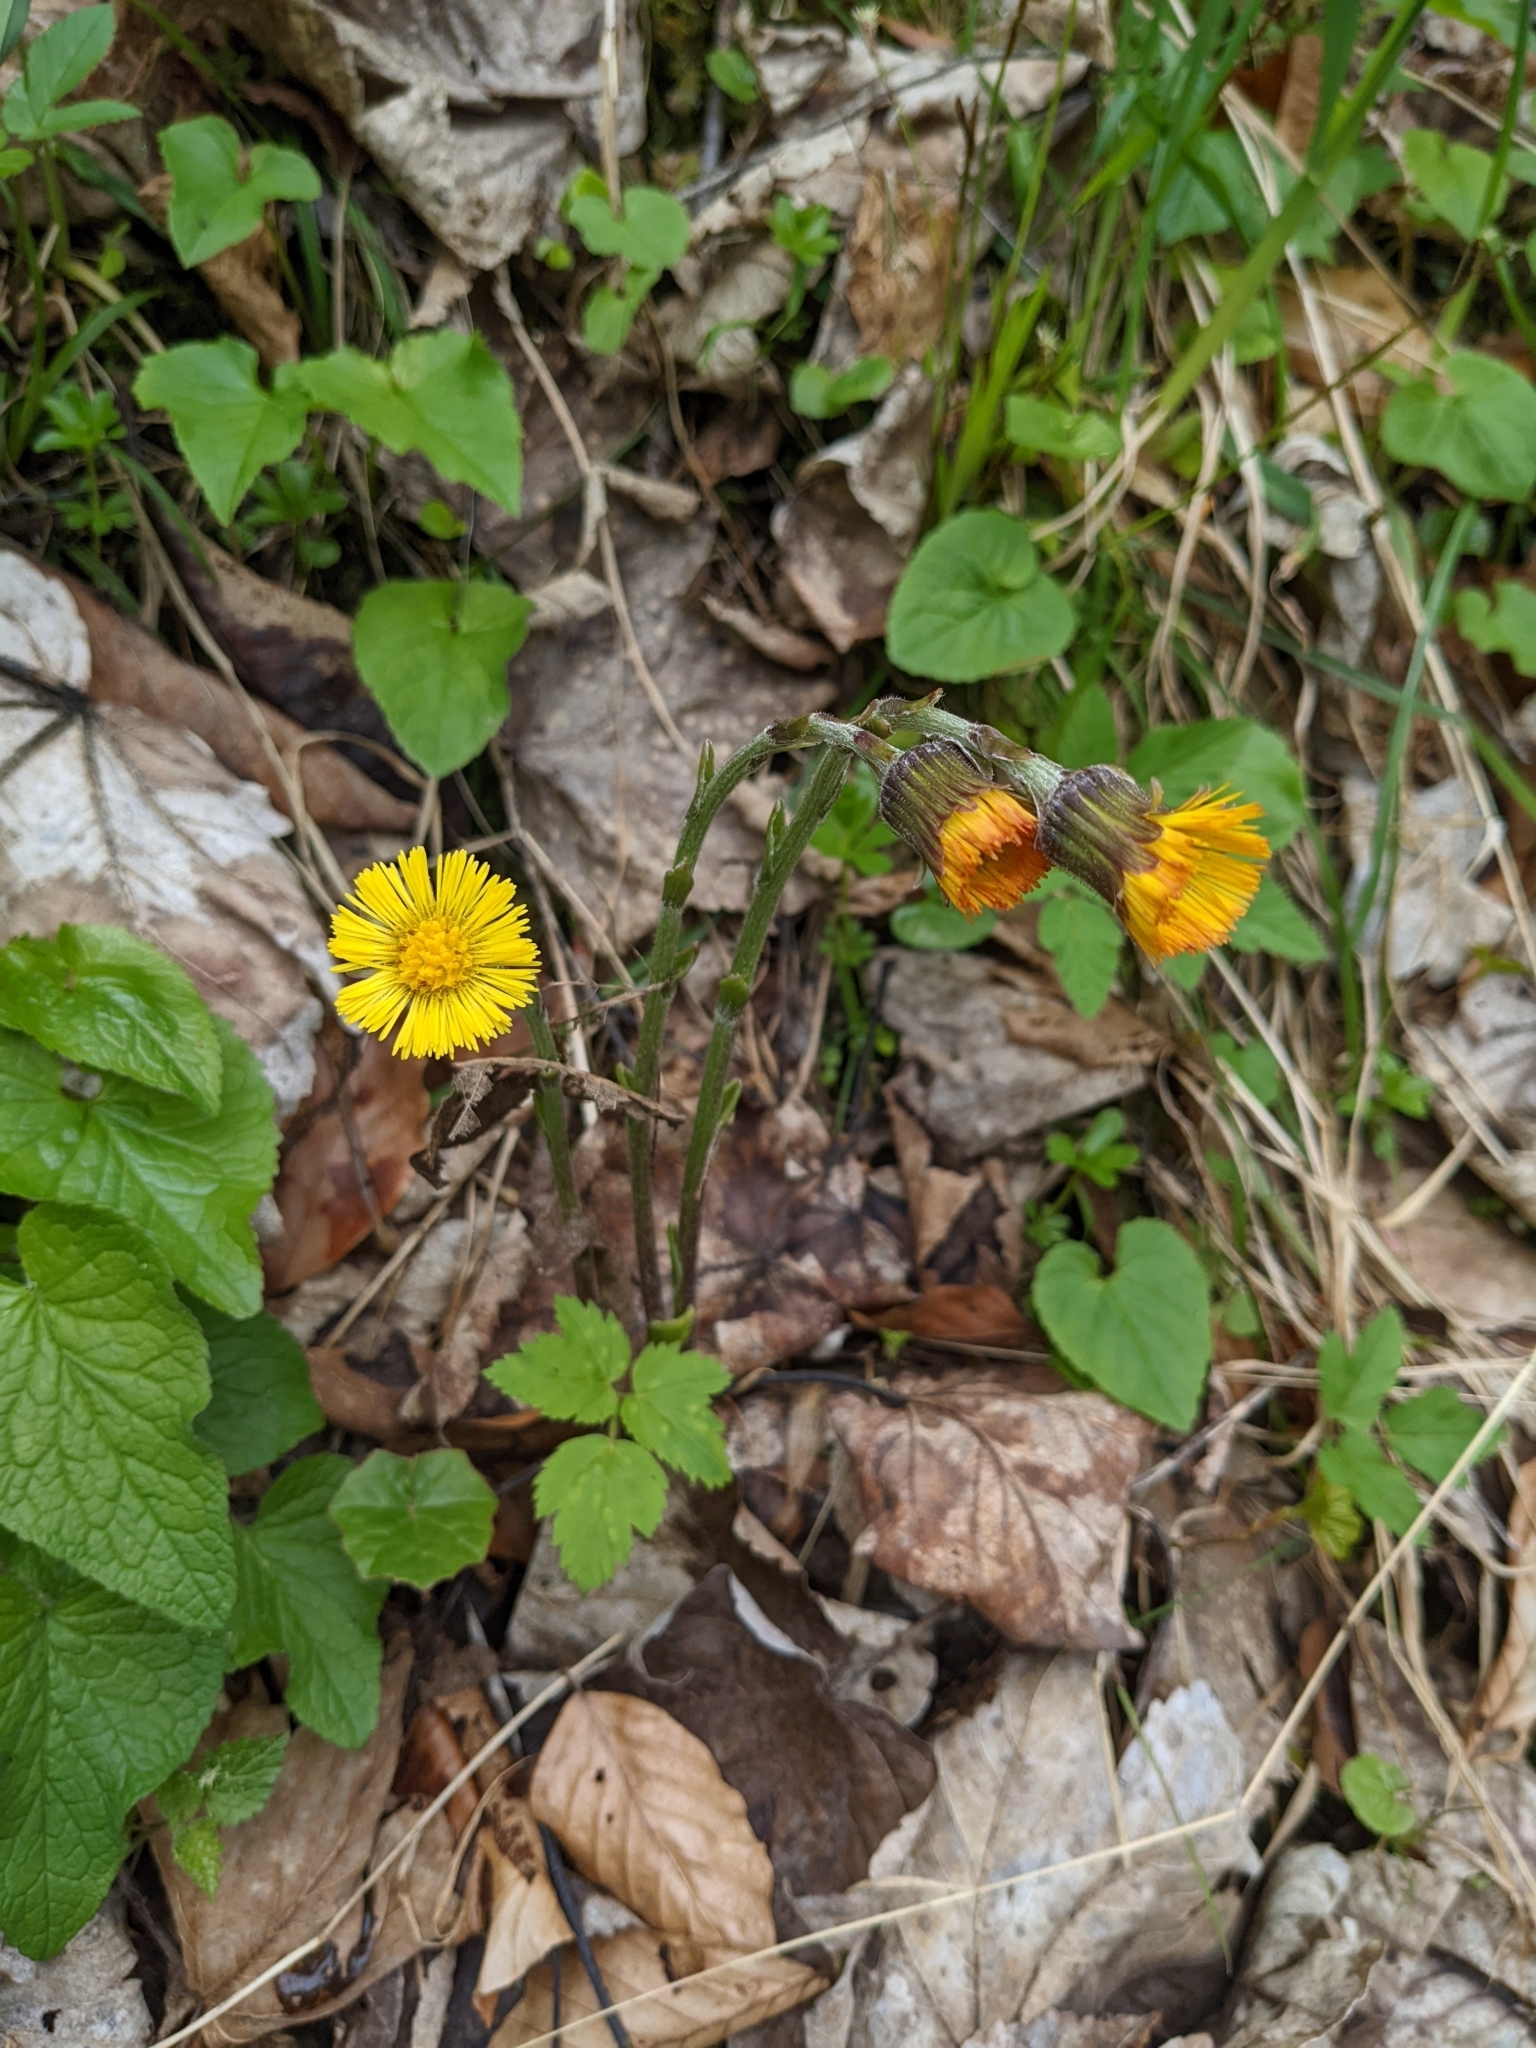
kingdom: Plantae
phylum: Tracheophyta
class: Magnoliopsida
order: Asterales
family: Asteraceae
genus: Tussilago
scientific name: Tussilago farfara
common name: Coltsfoot
